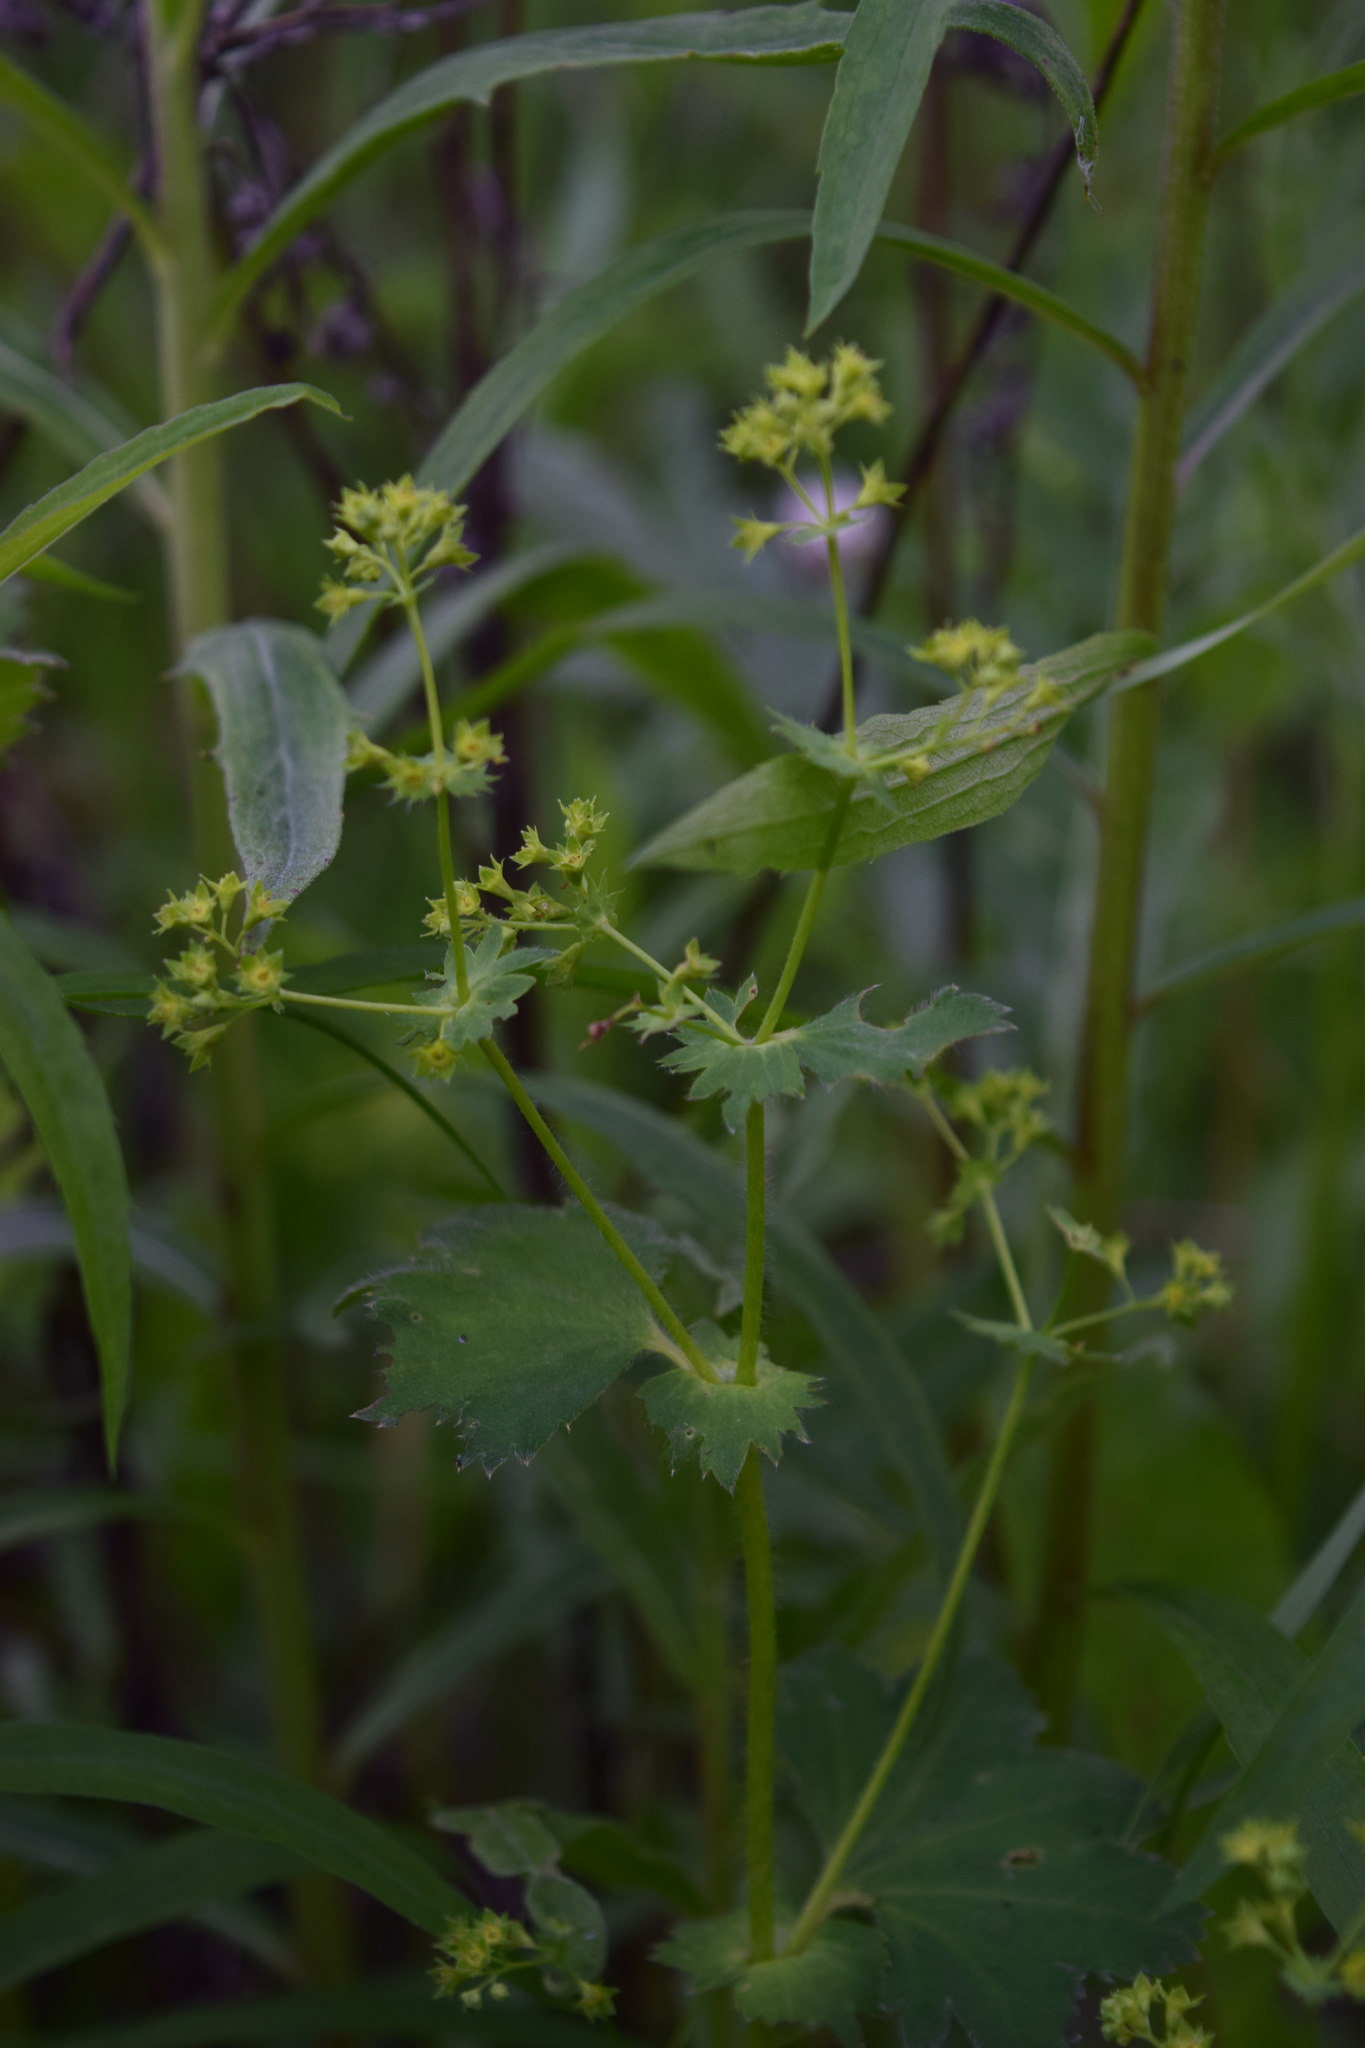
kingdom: Plantae
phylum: Tracheophyta
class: Magnoliopsida
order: Rosales
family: Rosaceae
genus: Alchemilla
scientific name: Alchemilla micans
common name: Gleaming lady's mantle
